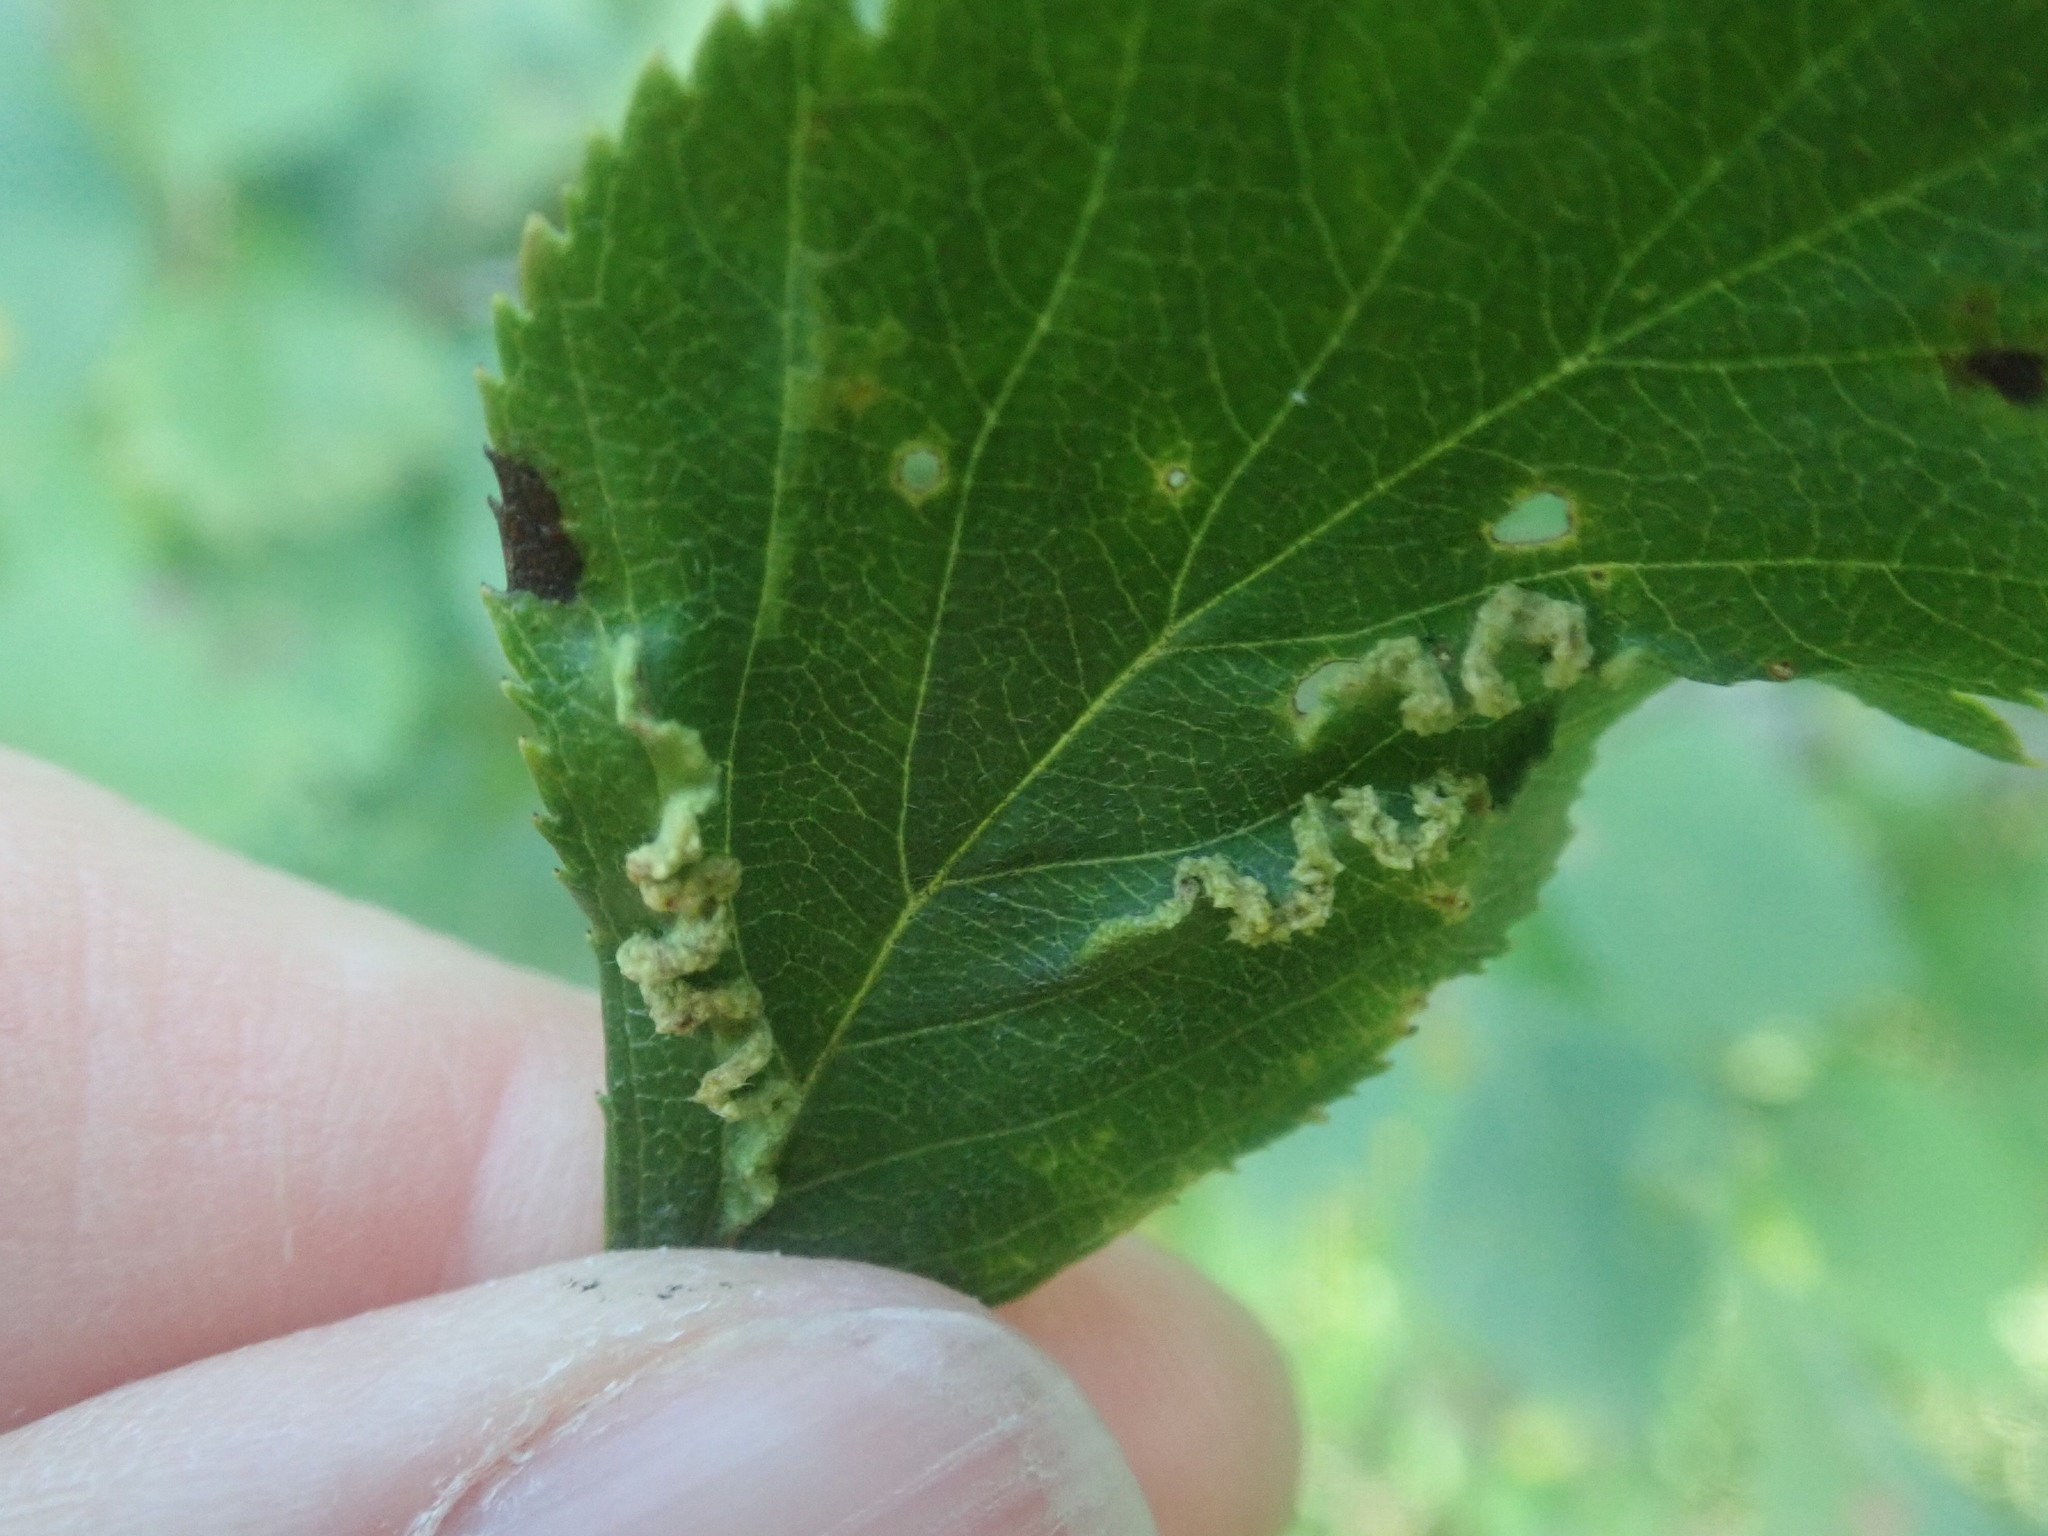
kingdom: Animalia
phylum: Arthropoda
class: Insecta
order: Diptera
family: Cecidomyiidae
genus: Blaesodiplosis
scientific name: Blaesodiplosis crataegifolia
